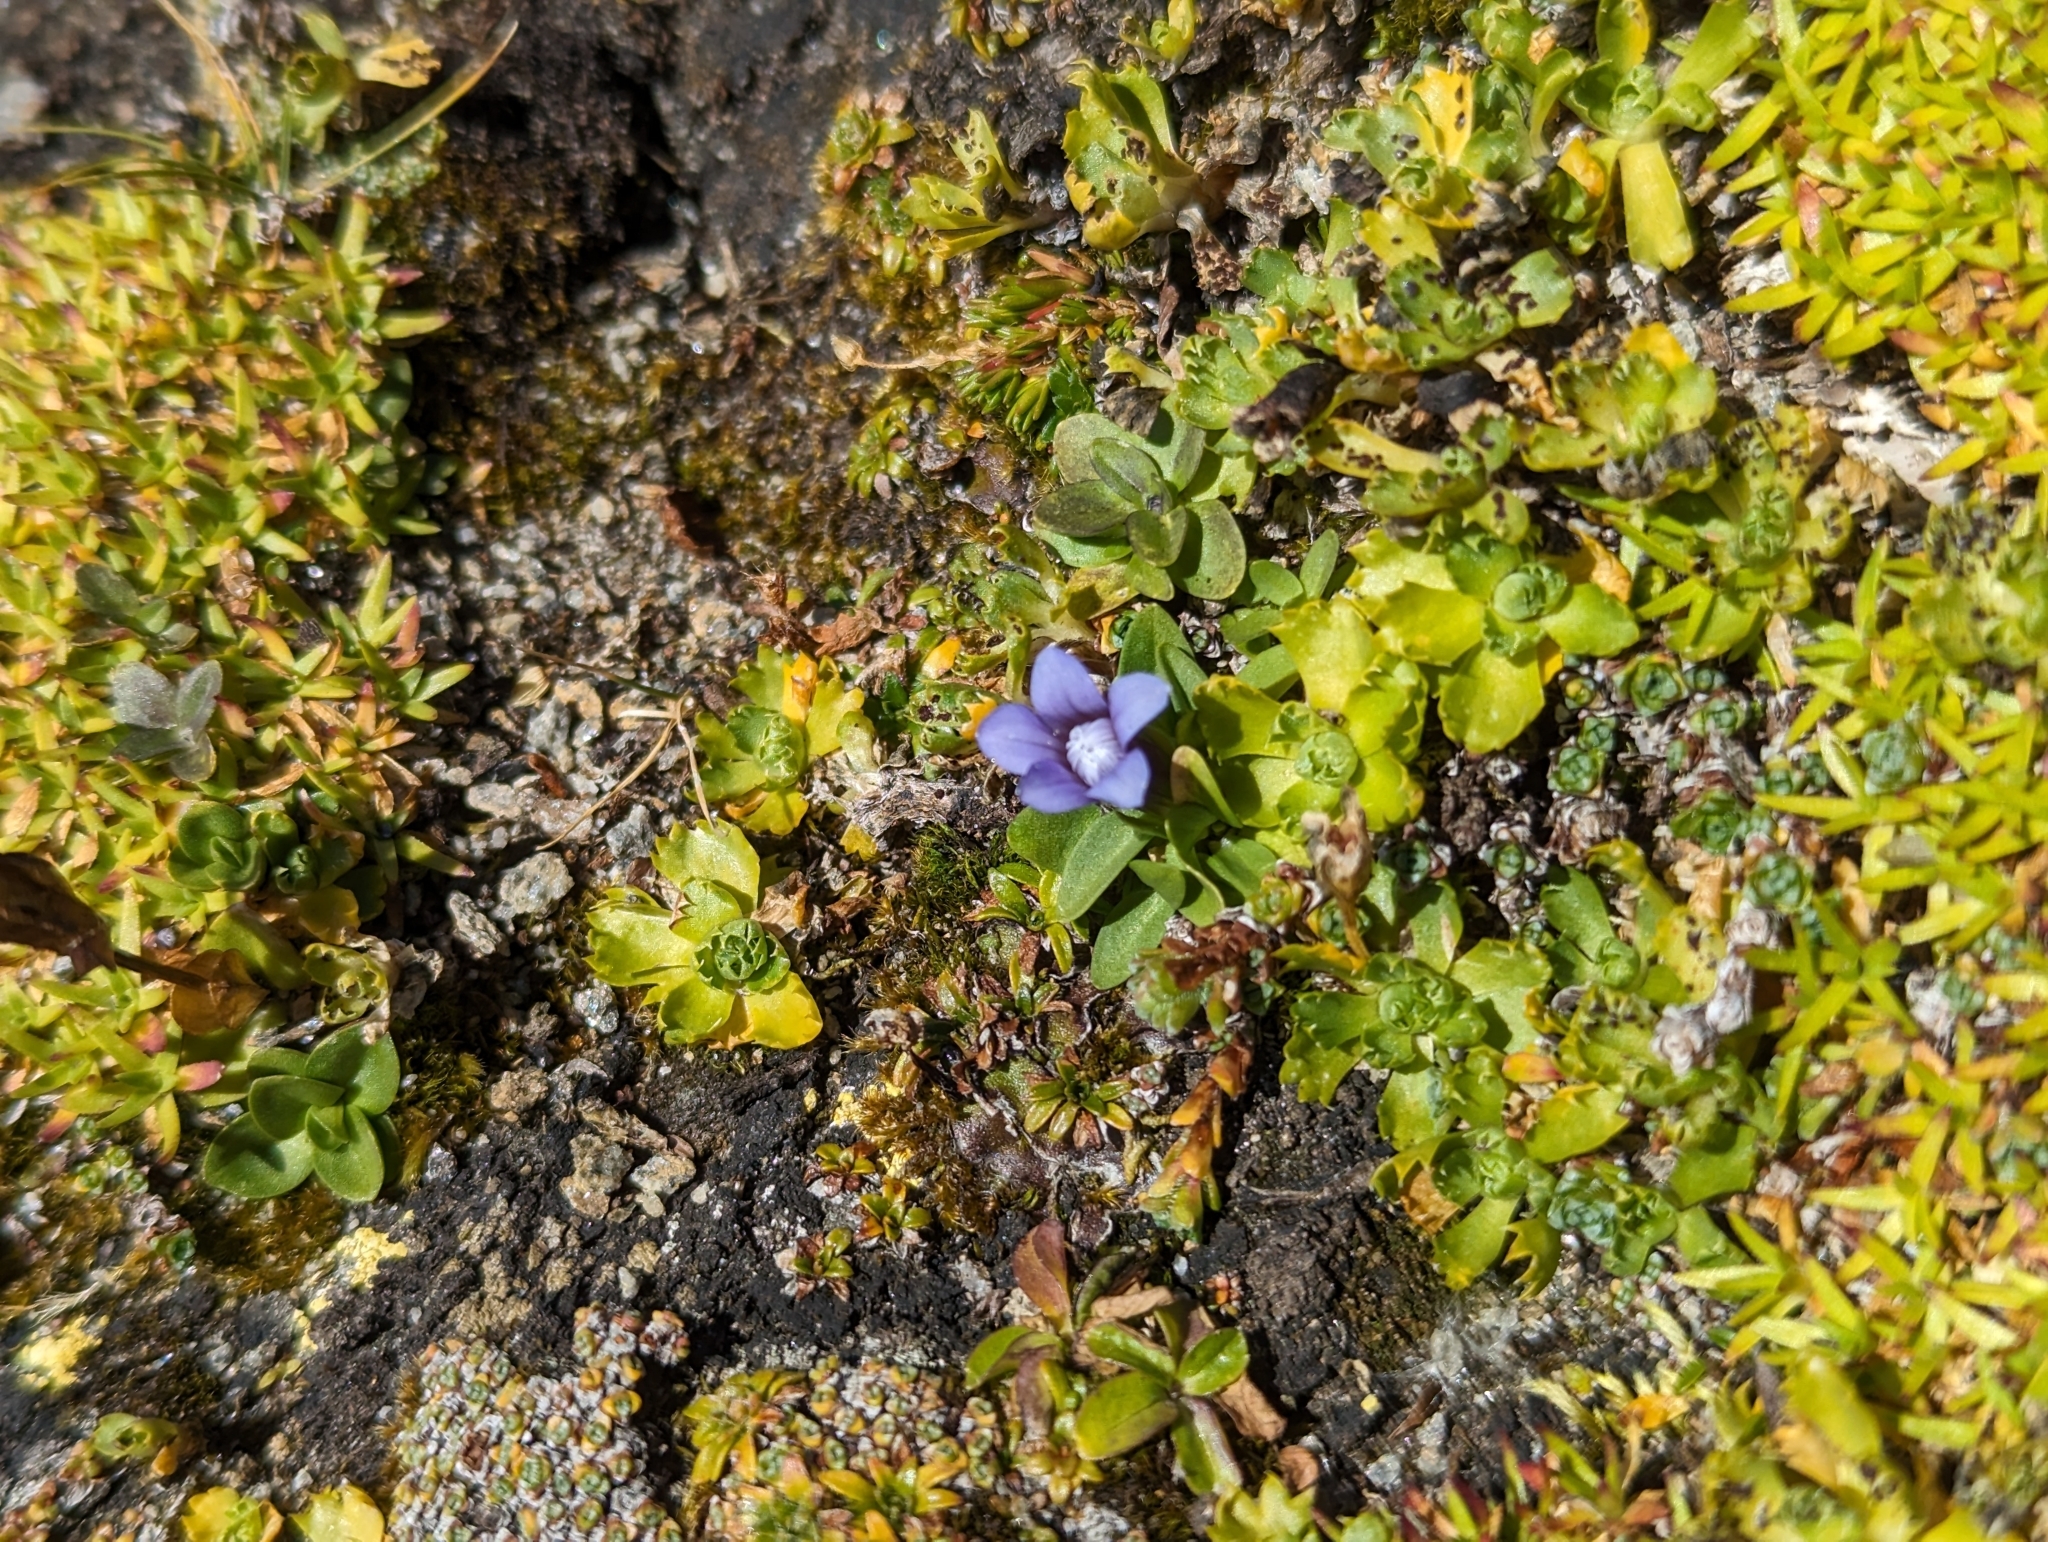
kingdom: Plantae
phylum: Tracheophyta
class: Magnoliopsida
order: Gentianales
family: Gentianaceae
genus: Comastoma
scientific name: Comastoma nanum
